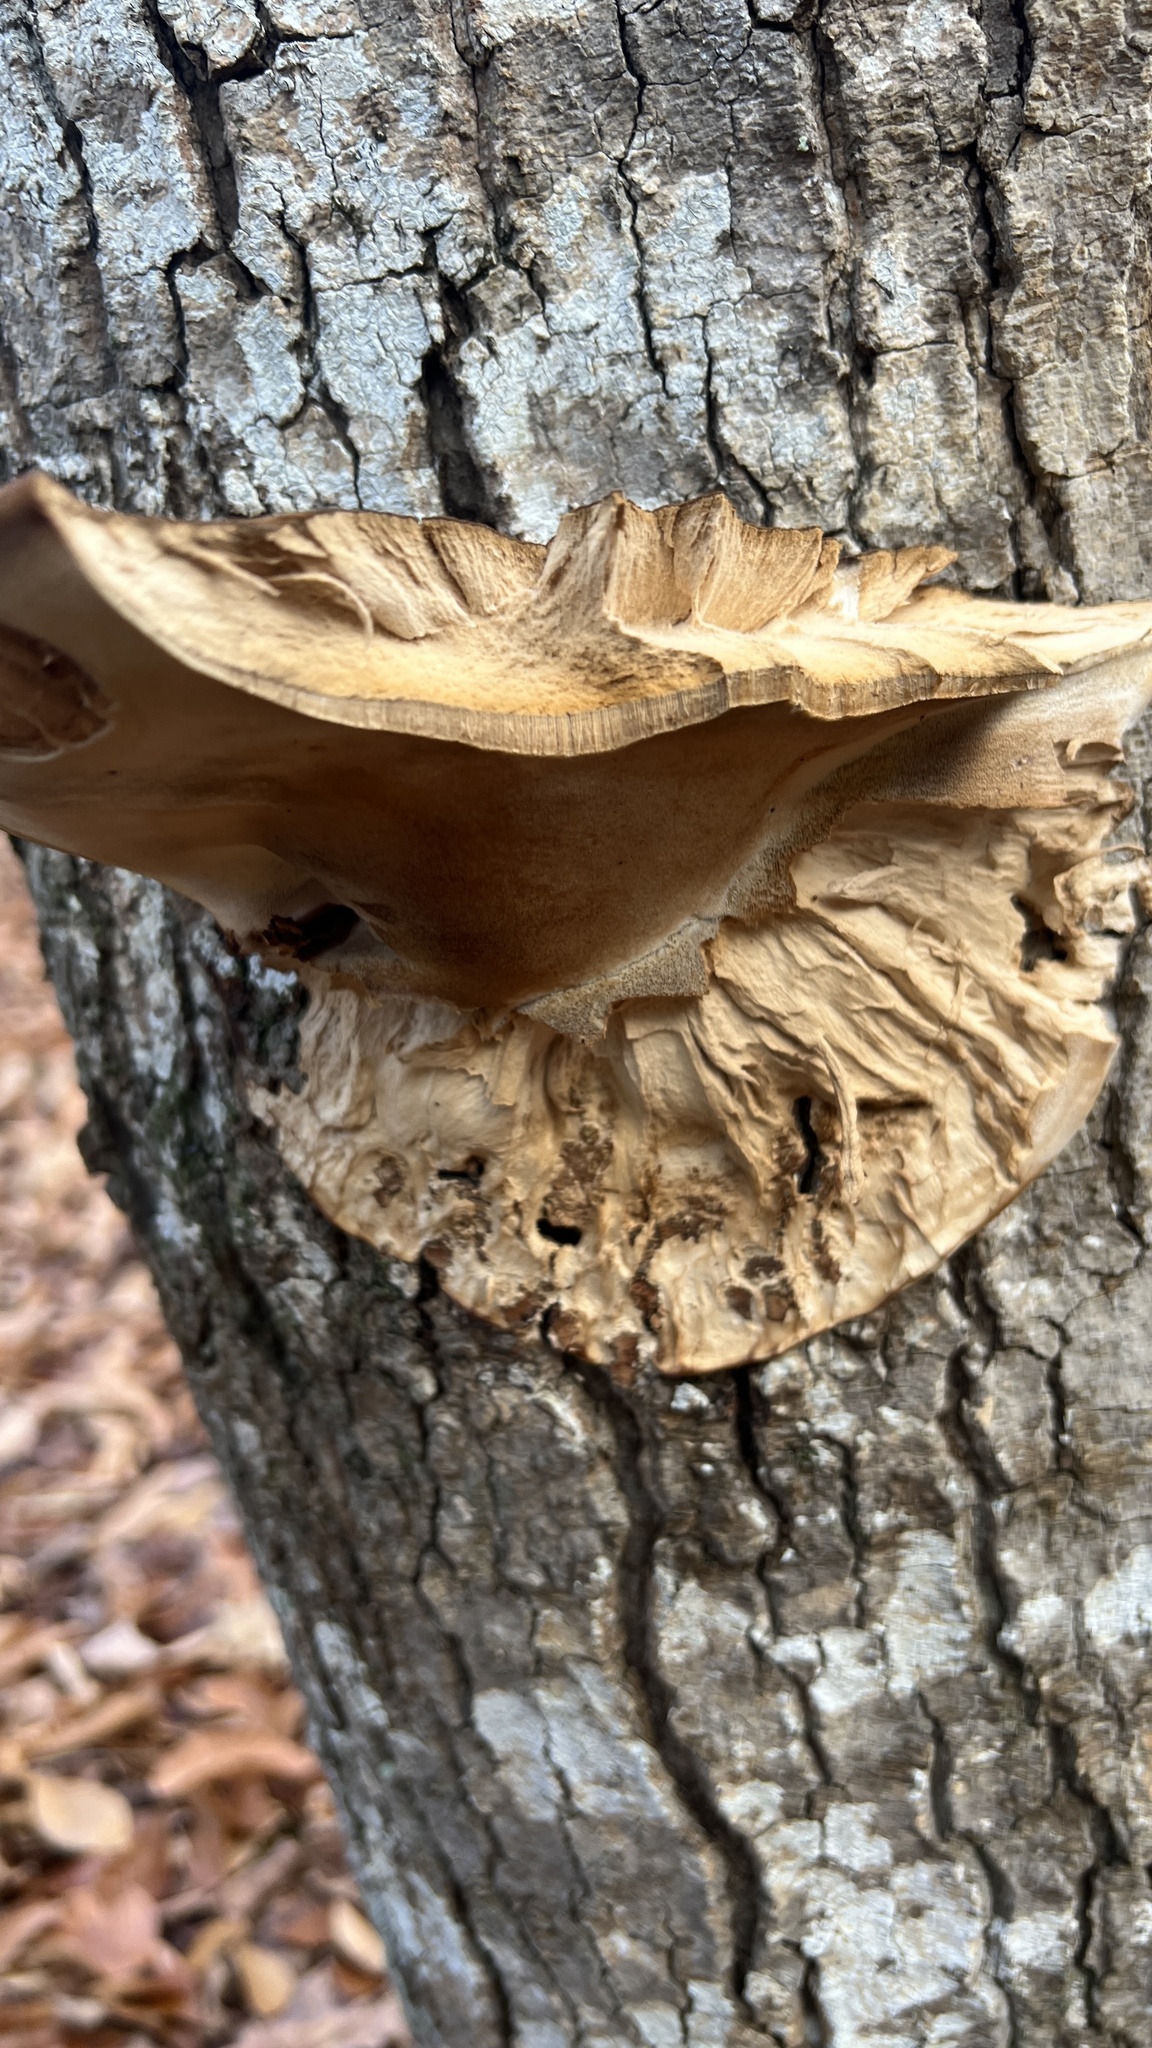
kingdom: Fungi
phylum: Basidiomycota
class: Agaricomycetes
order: Polyporales
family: Ischnodermataceae
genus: Ischnoderma
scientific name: Ischnoderma resinosum
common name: Resinous polypore
